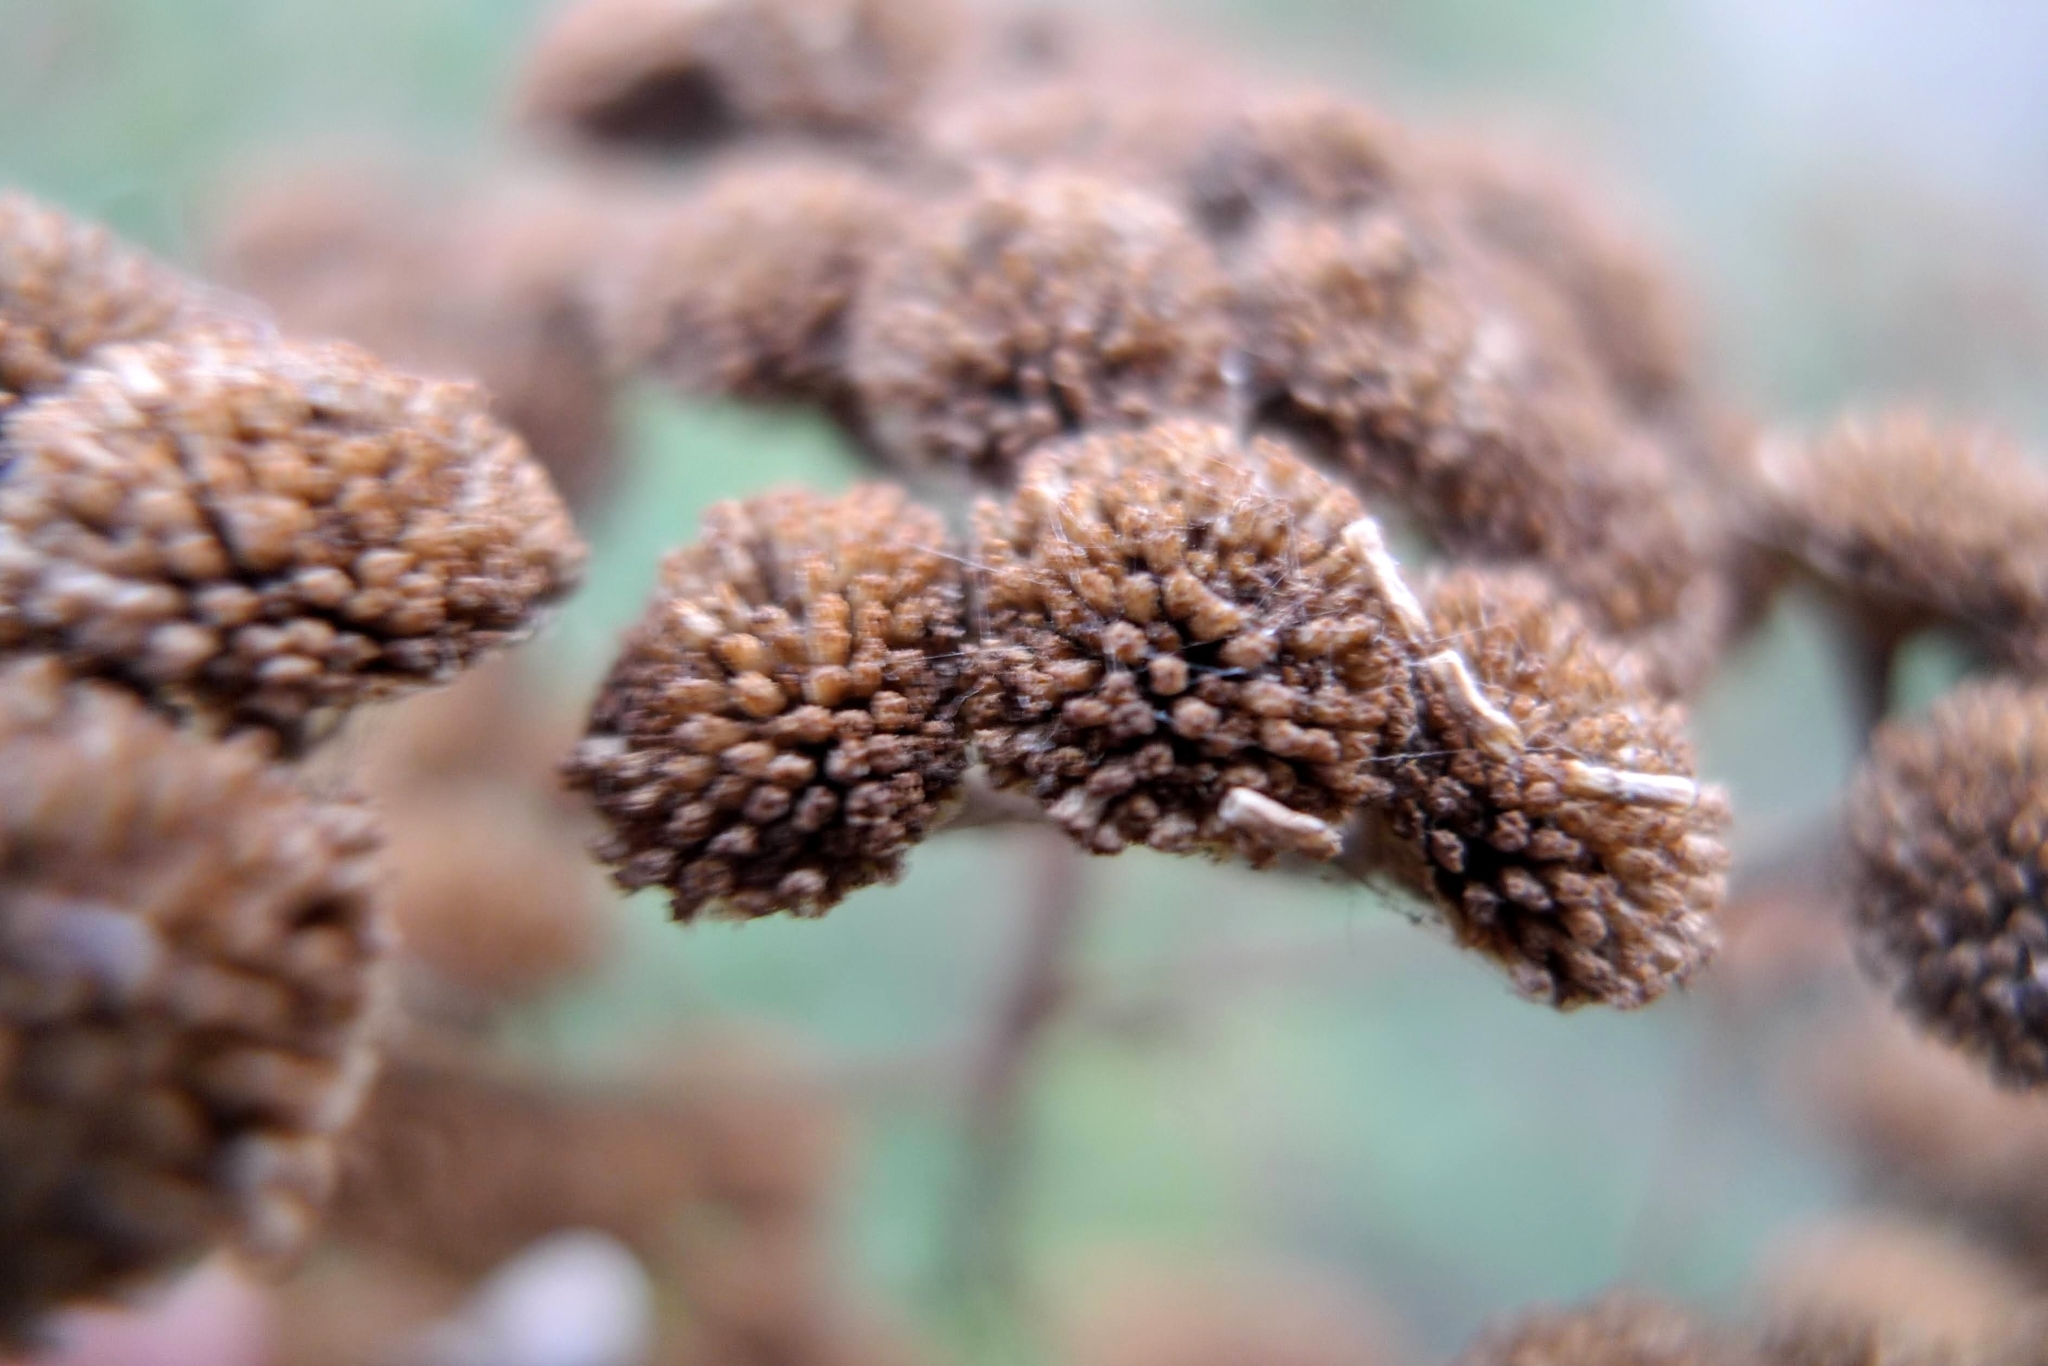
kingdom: Plantae
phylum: Tracheophyta
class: Magnoliopsida
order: Asterales
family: Asteraceae
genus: Tanacetum
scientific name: Tanacetum vulgare
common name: Common tansy
